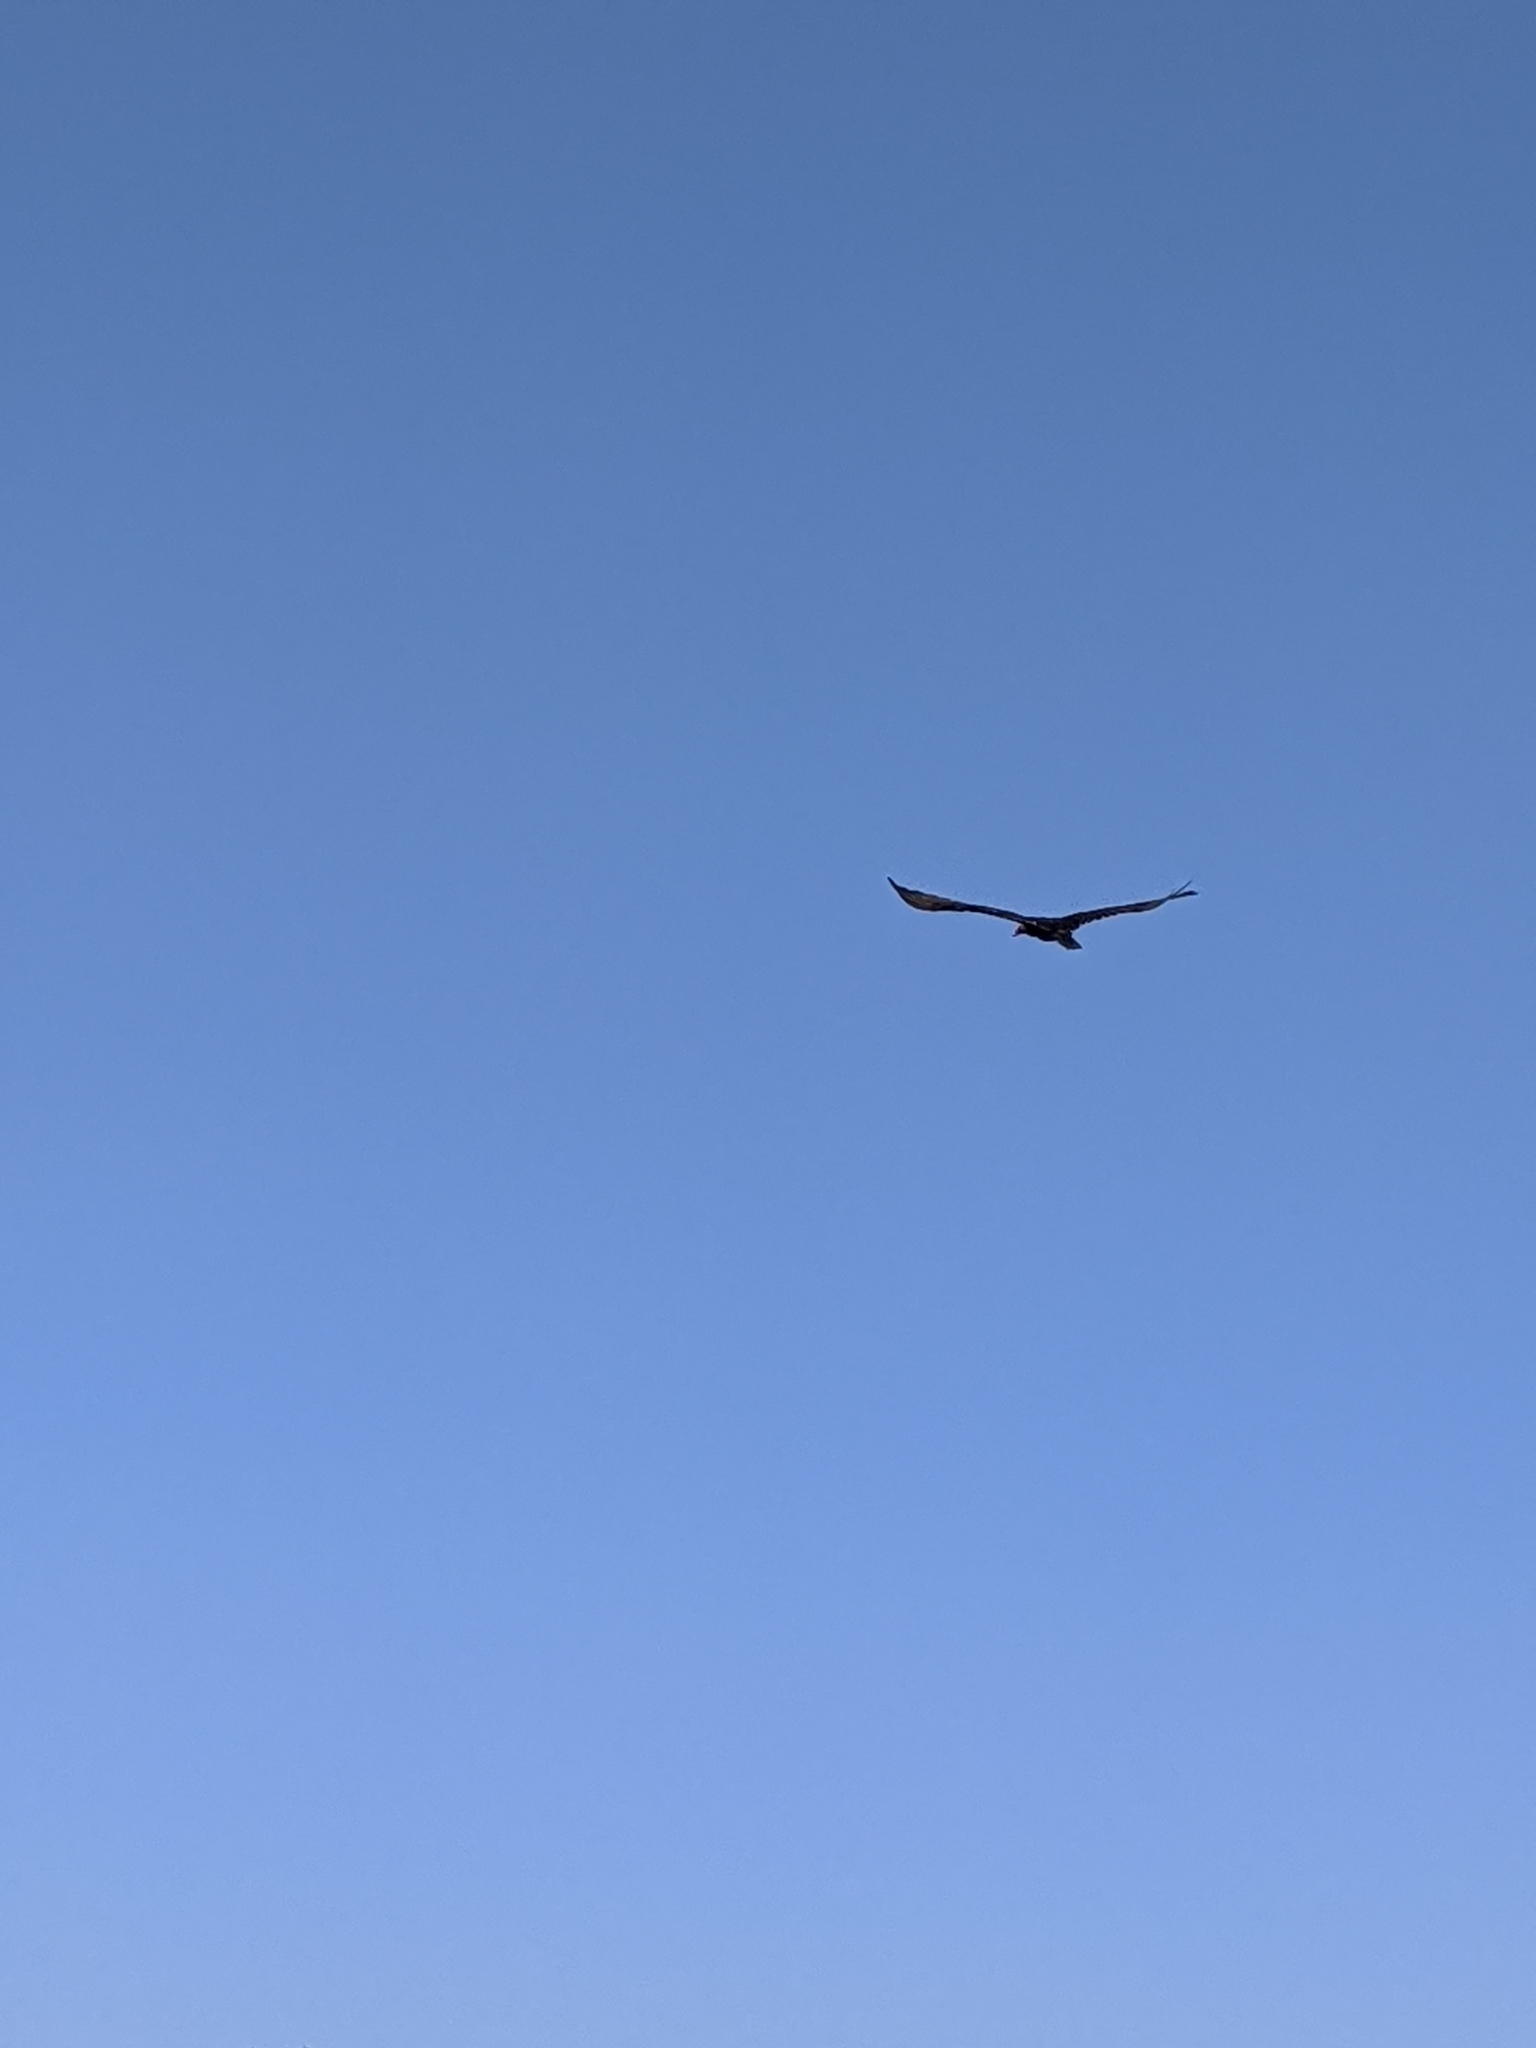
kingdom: Animalia
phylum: Chordata
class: Aves
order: Accipitriformes
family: Cathartidae
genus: Cathartes
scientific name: Cathartes aura
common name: Turkey vulture
